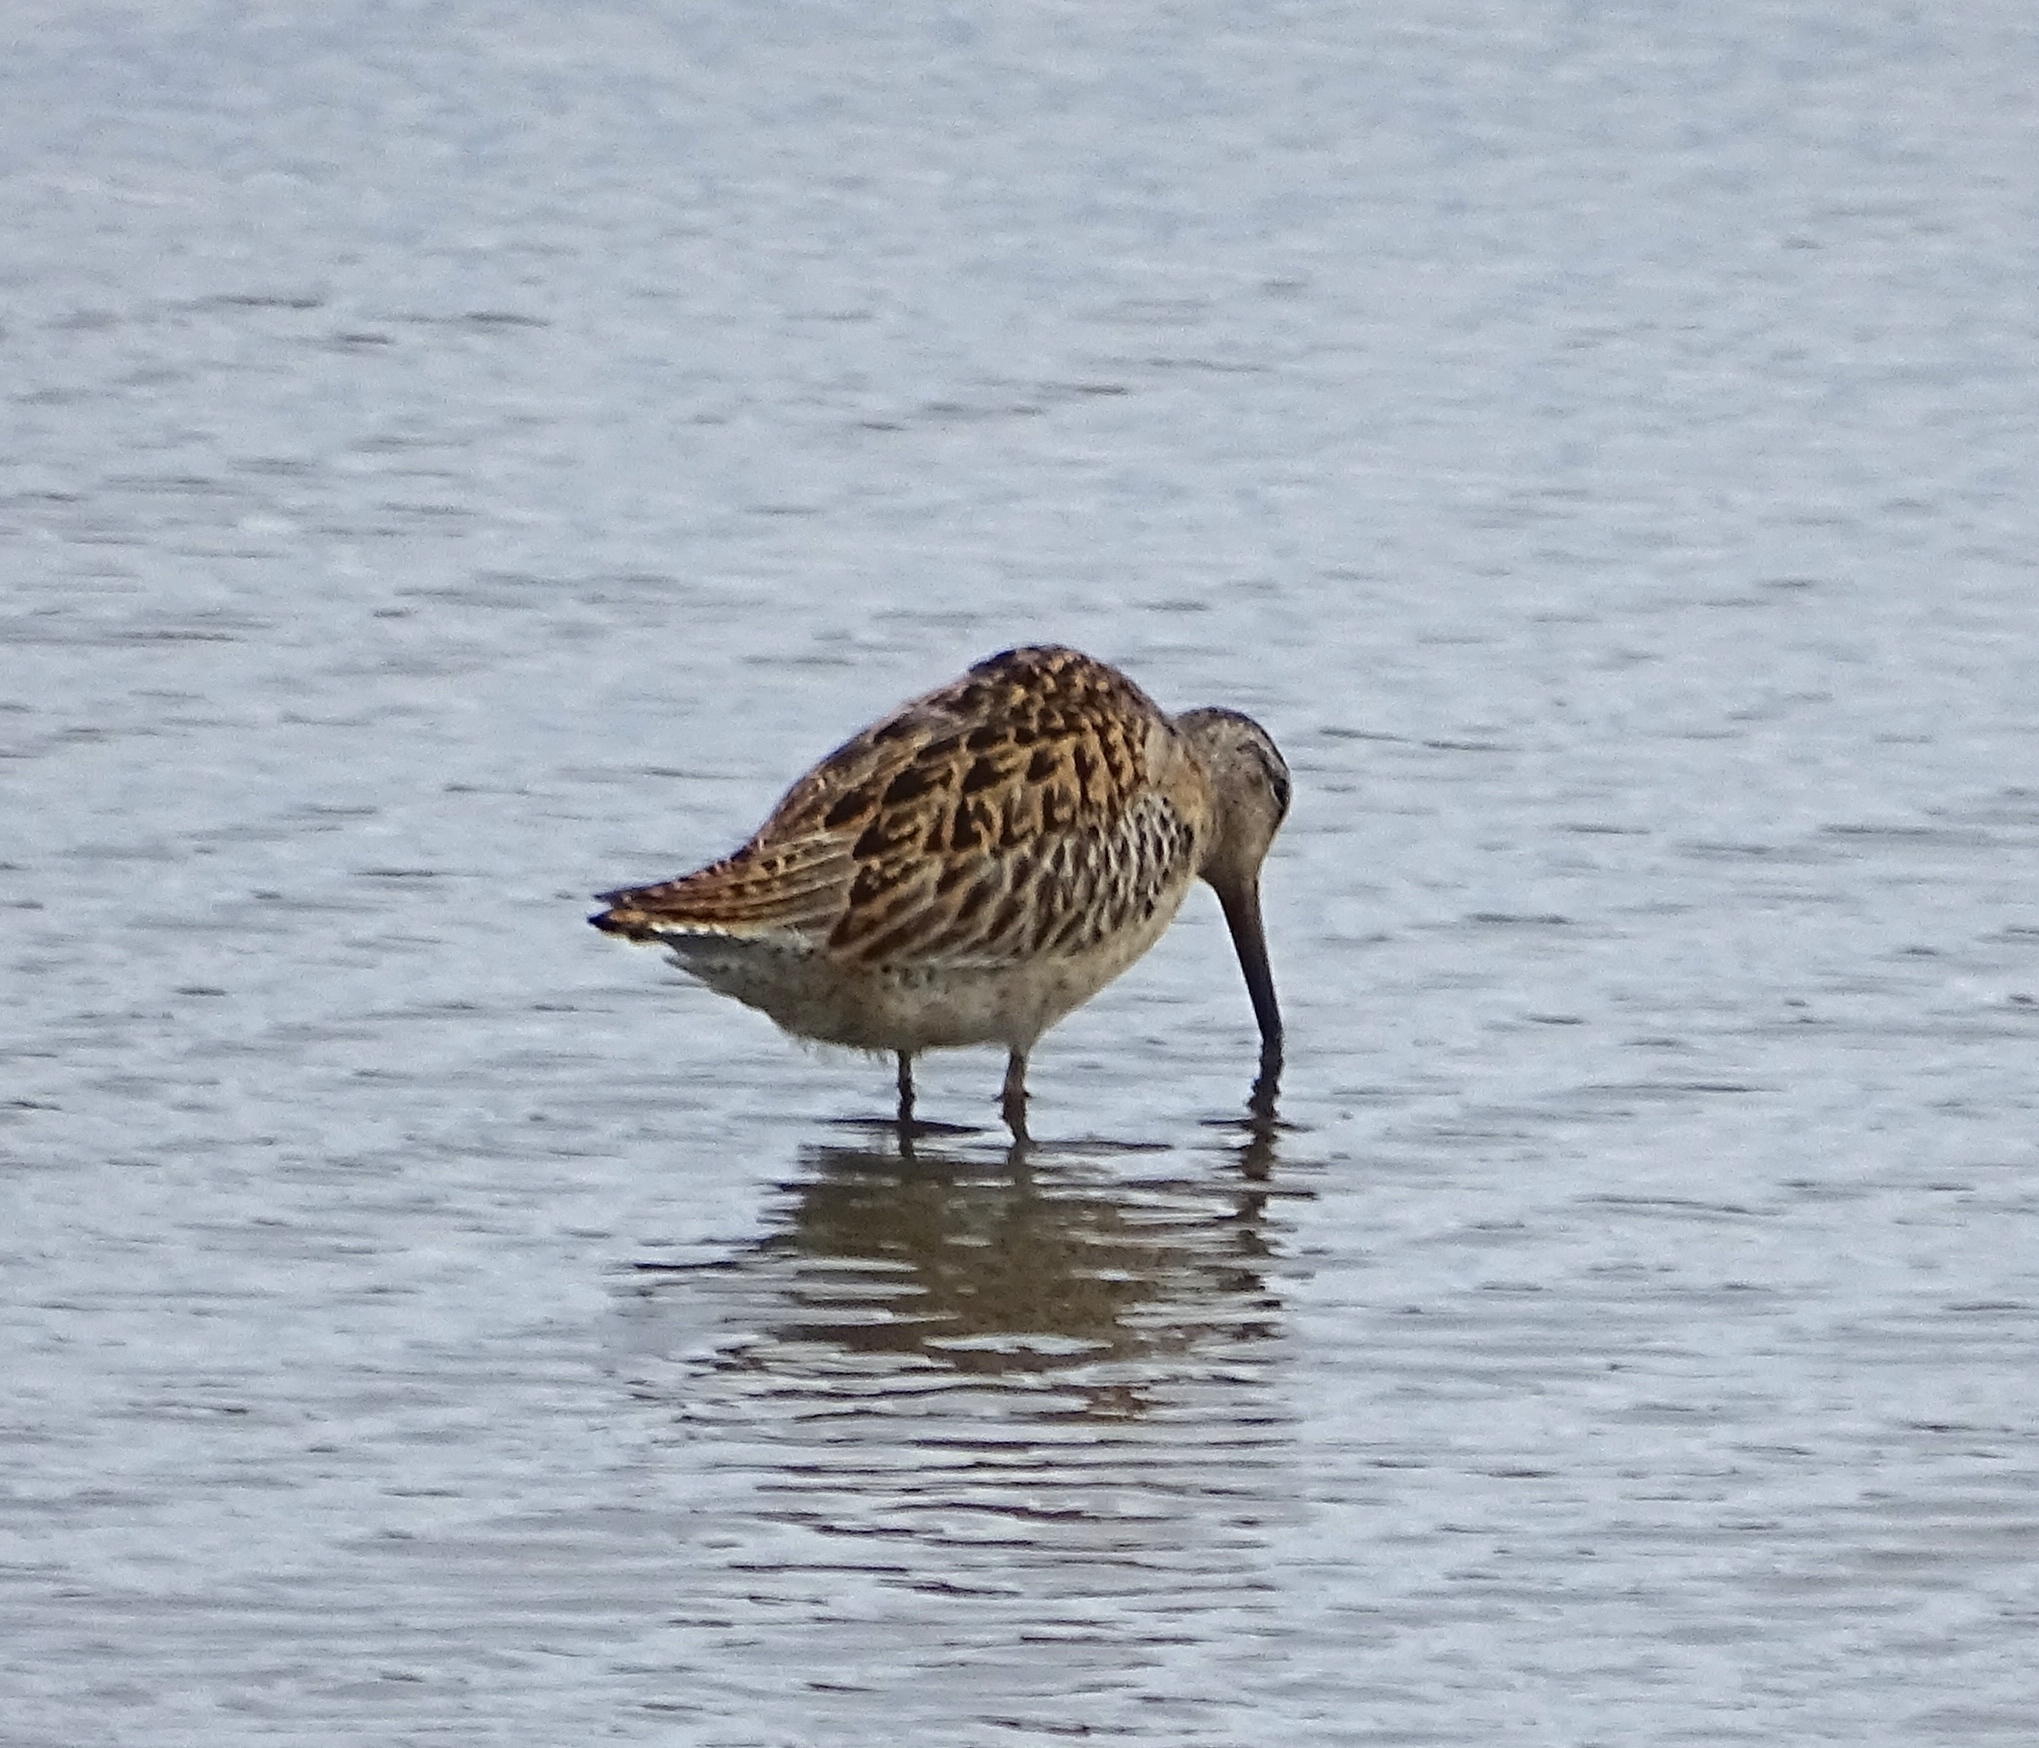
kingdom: Animalia
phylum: Chordata
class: Aves
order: Charadriiformes
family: Scolopacidae
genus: Limnodromus
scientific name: Limnodromus griseus
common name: Short-billed dowitcher
